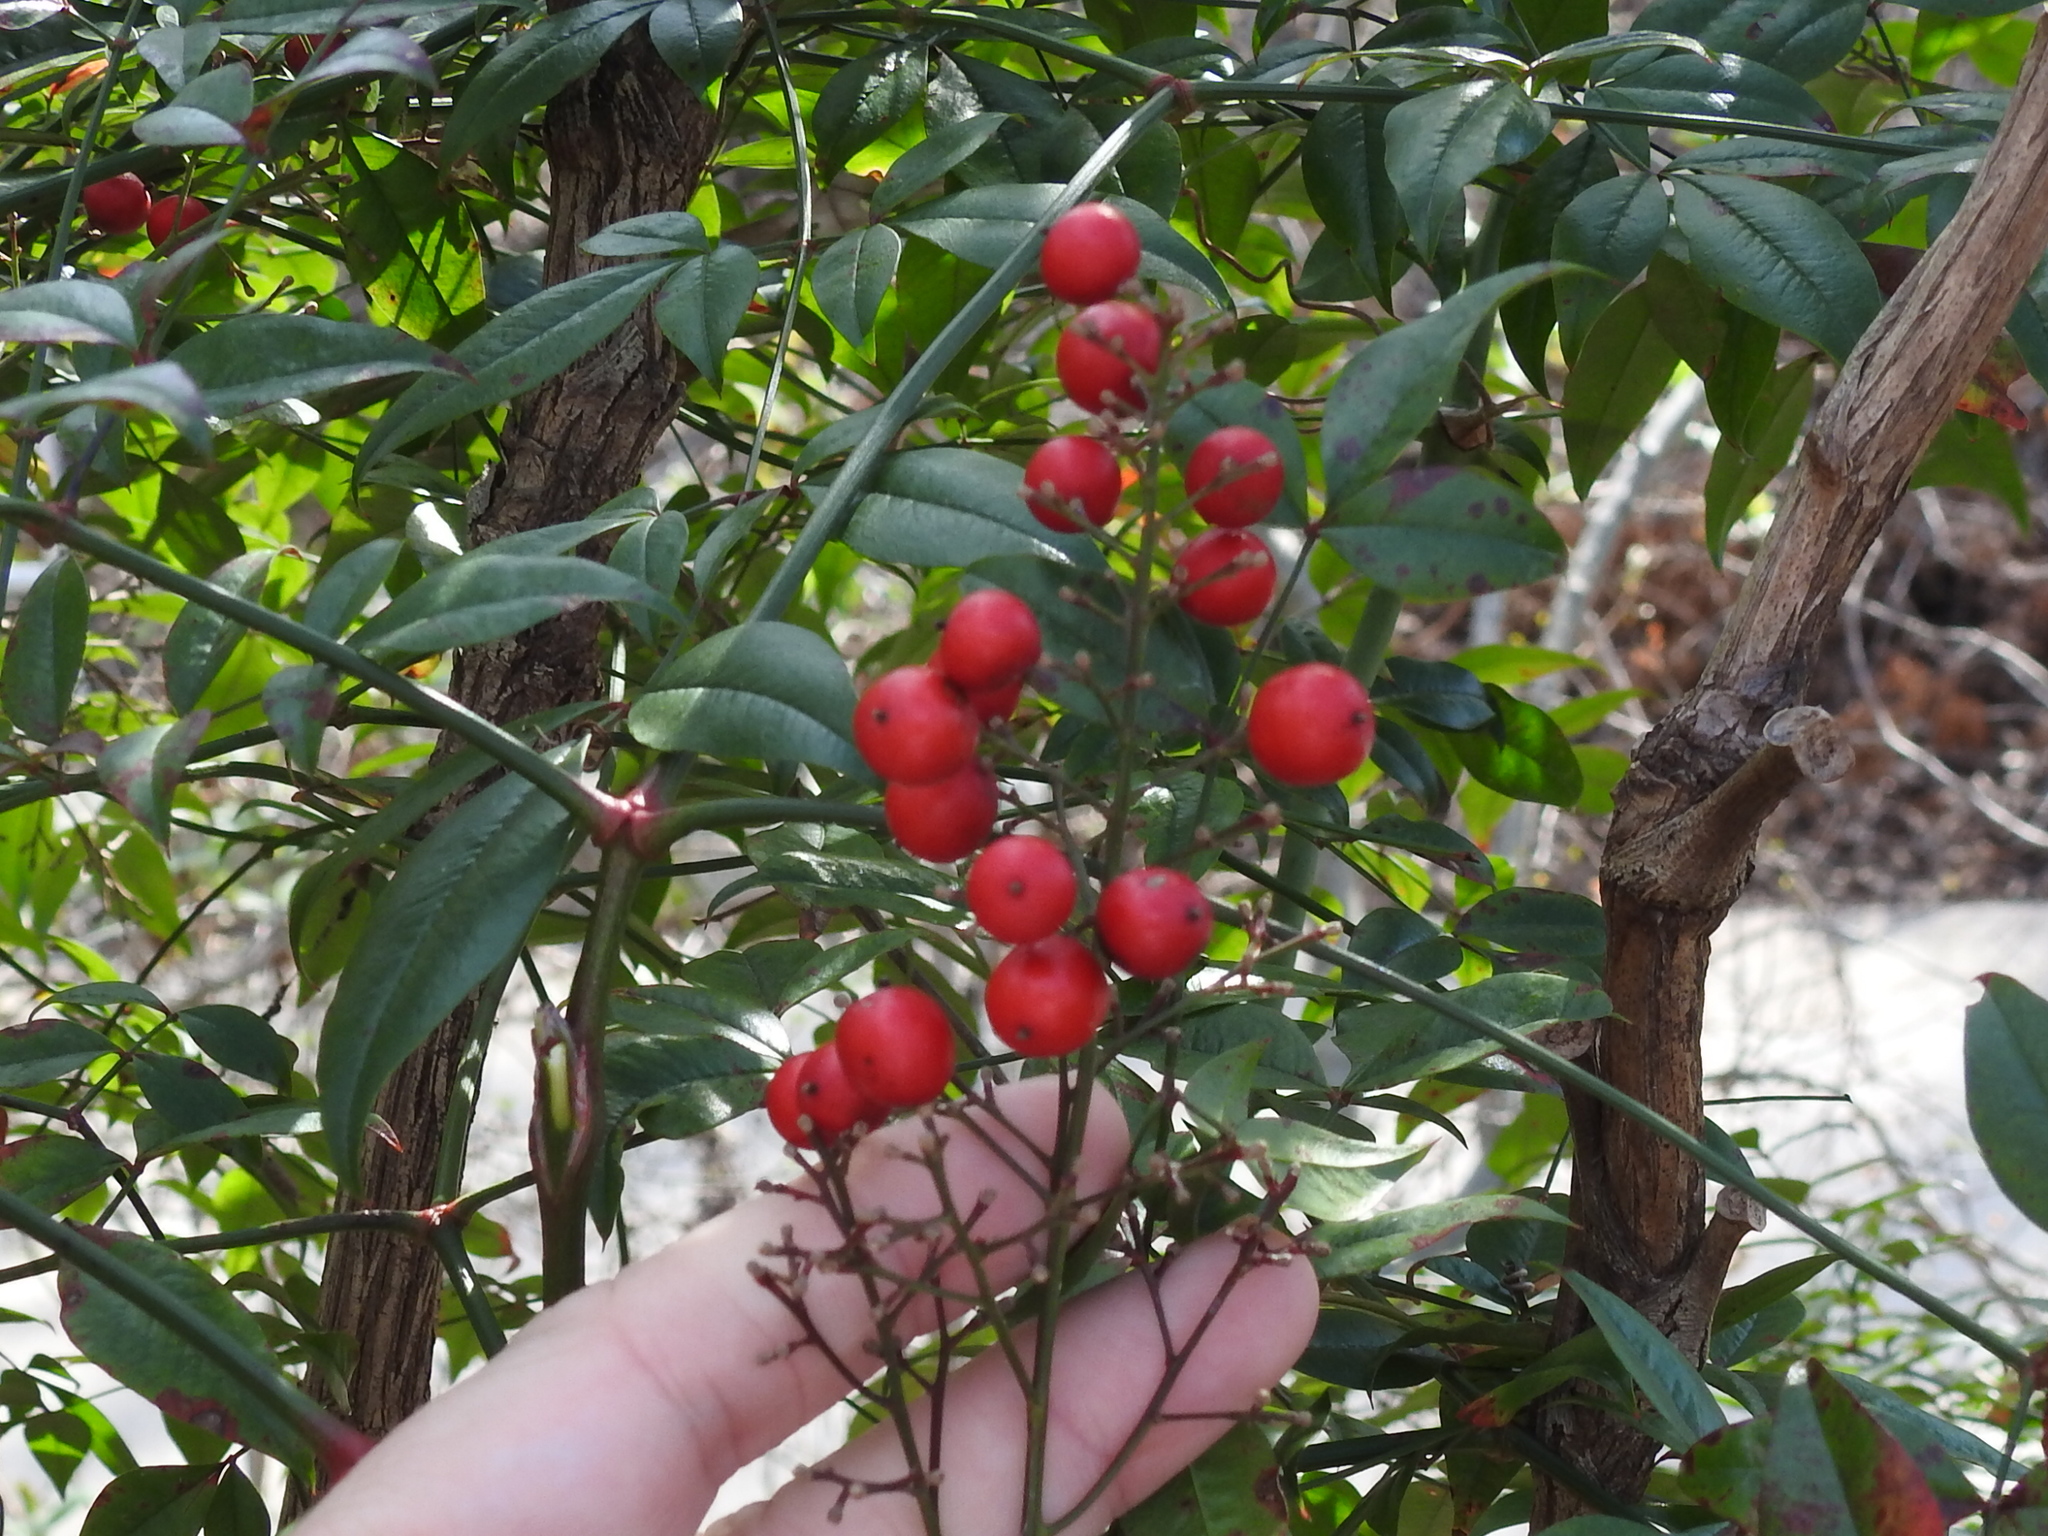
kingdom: Plantae
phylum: Tracheophyta
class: Magnoliopsida
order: Ranunculales
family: Berberidaceae
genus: Nandina
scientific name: Nandina domestica
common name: Sacred bamboo
